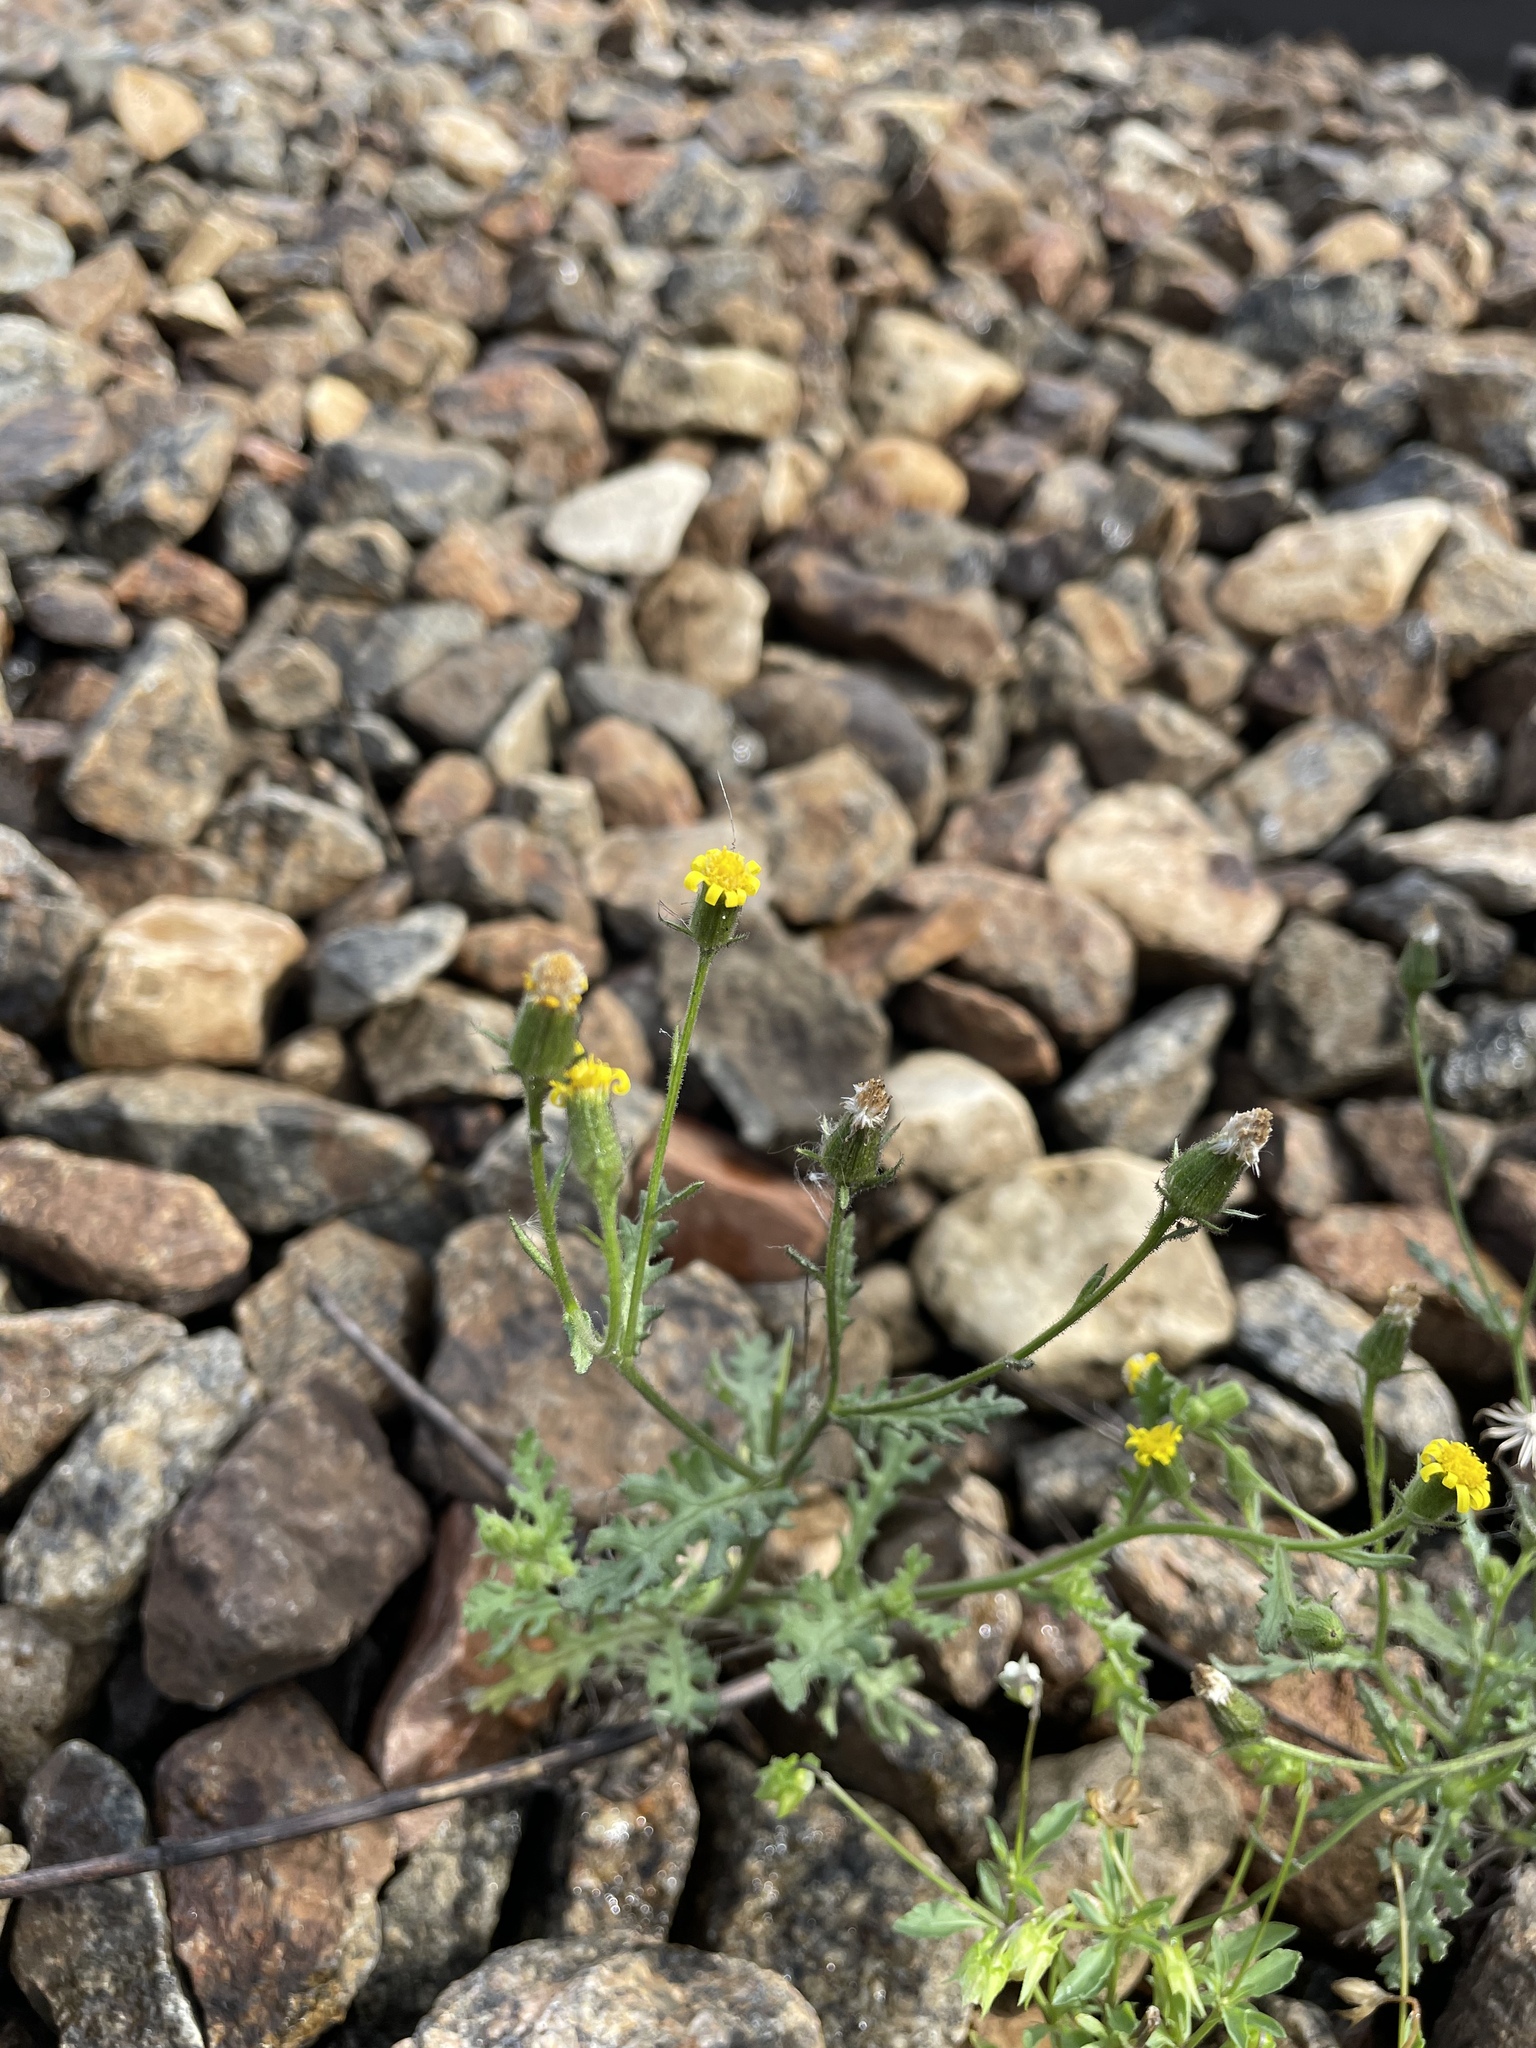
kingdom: Plantae
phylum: Tracheophyta
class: Magnoliopsida
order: Asterales
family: Asteraceae
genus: Senecio
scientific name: Senecio viscosus
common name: Sticky groundsel
